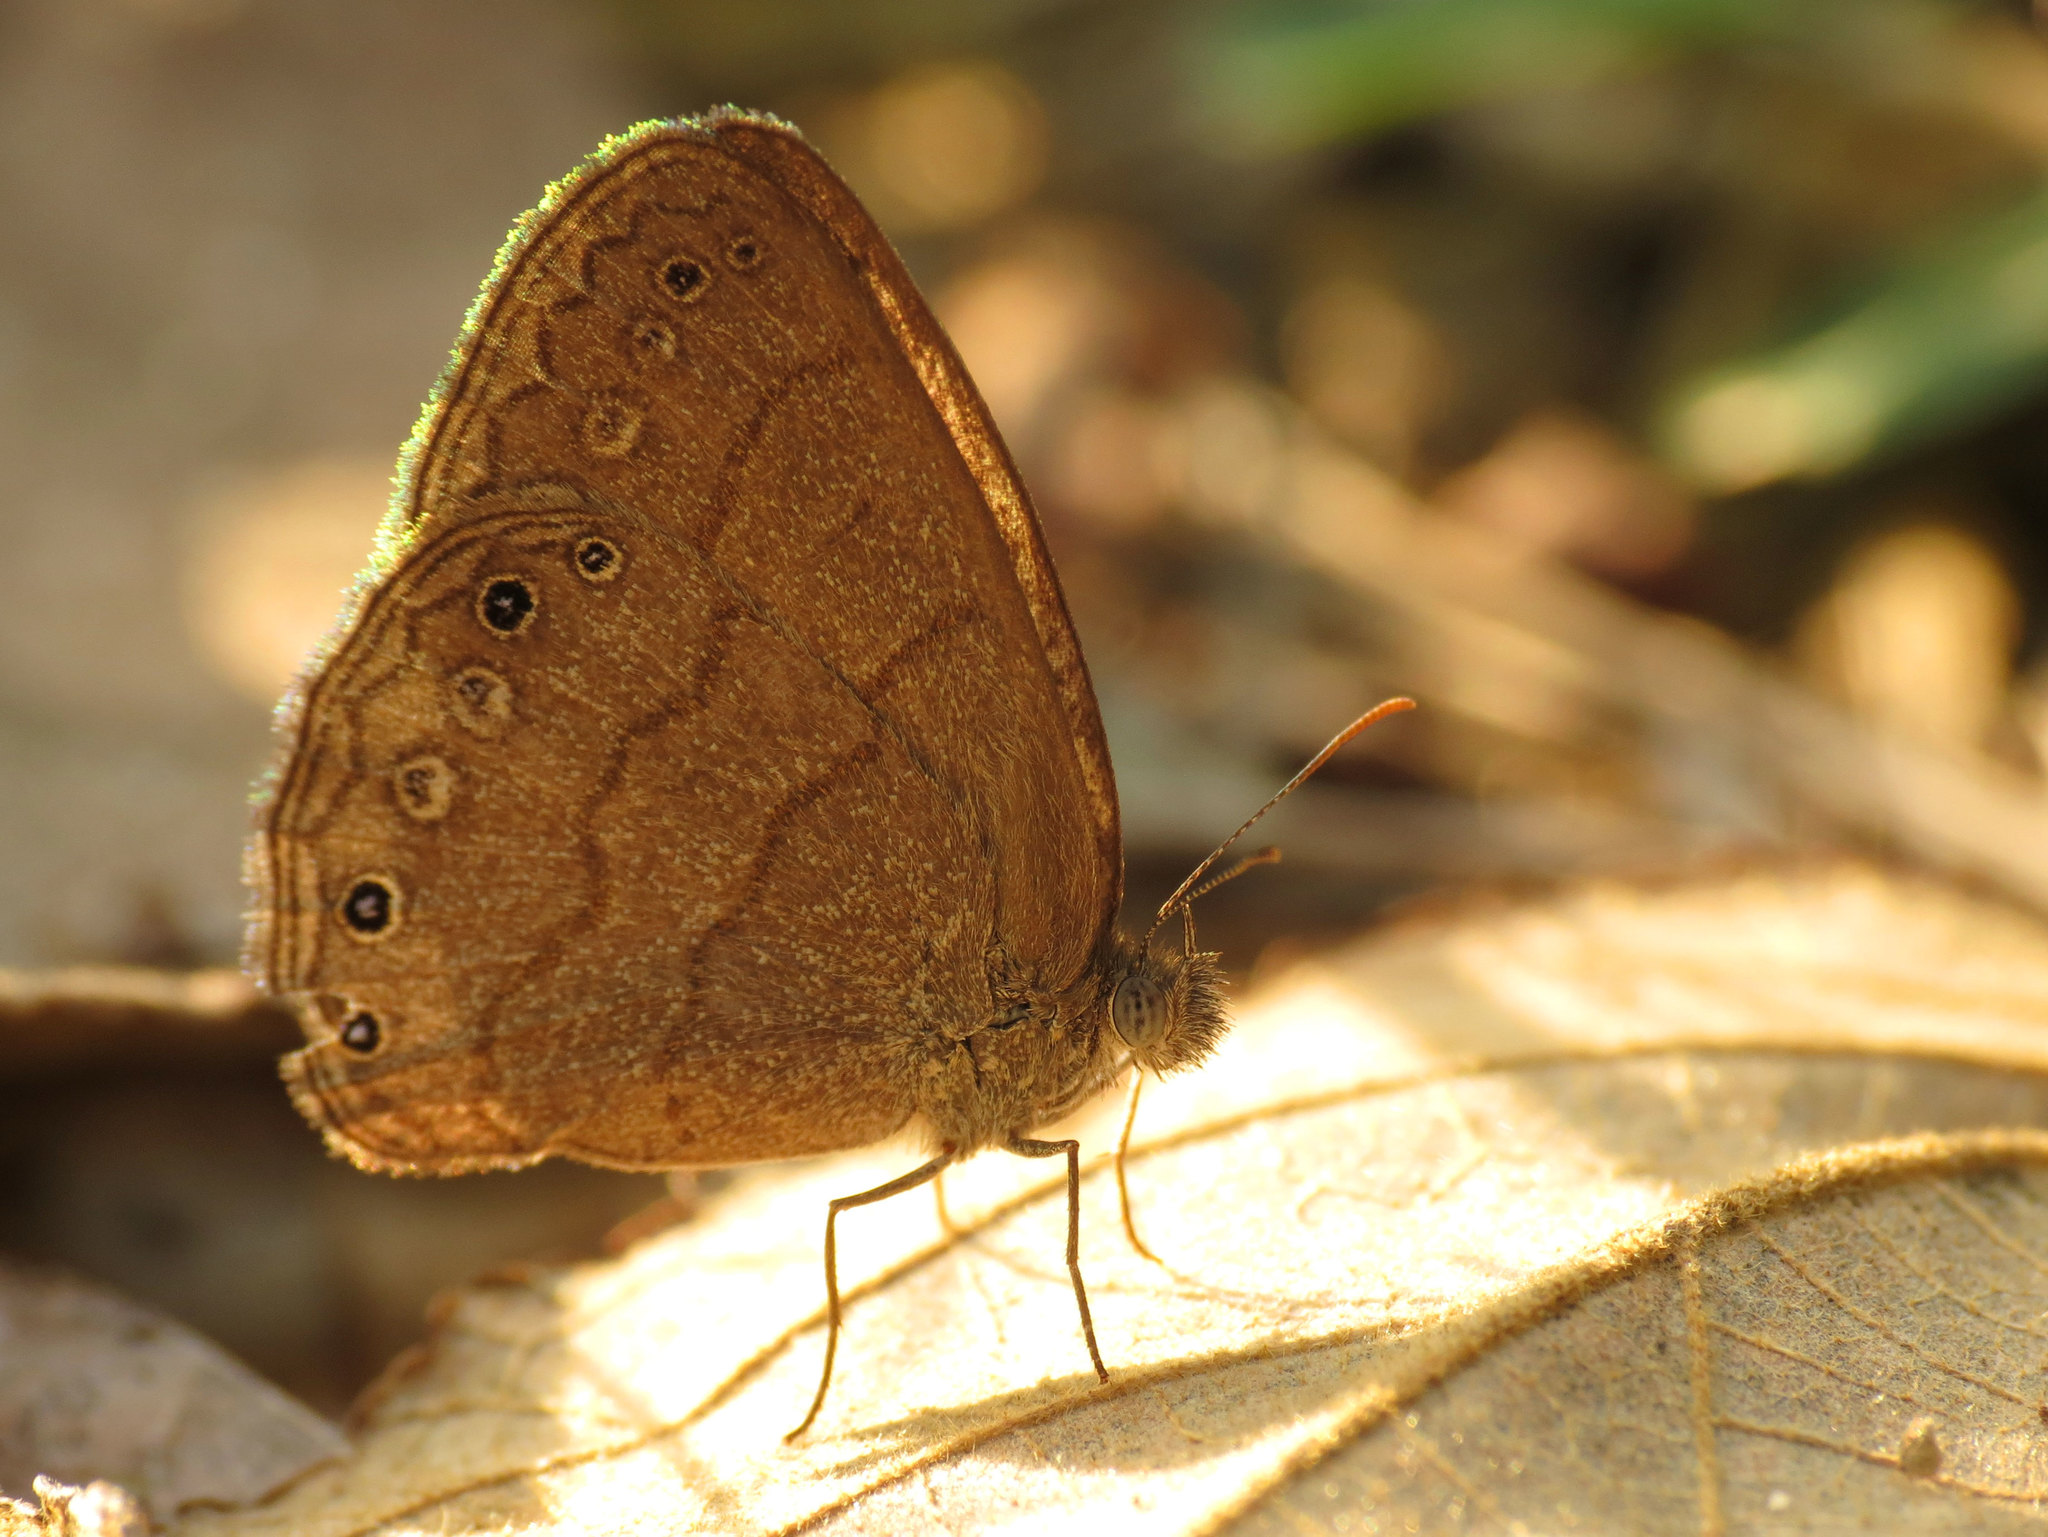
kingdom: Animalia
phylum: Arthropoda
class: Insecta
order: Lepidoptera
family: Nymphalidae
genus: Hermeuptychia
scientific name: Hermeuptychia hermes
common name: Hermes satyr
